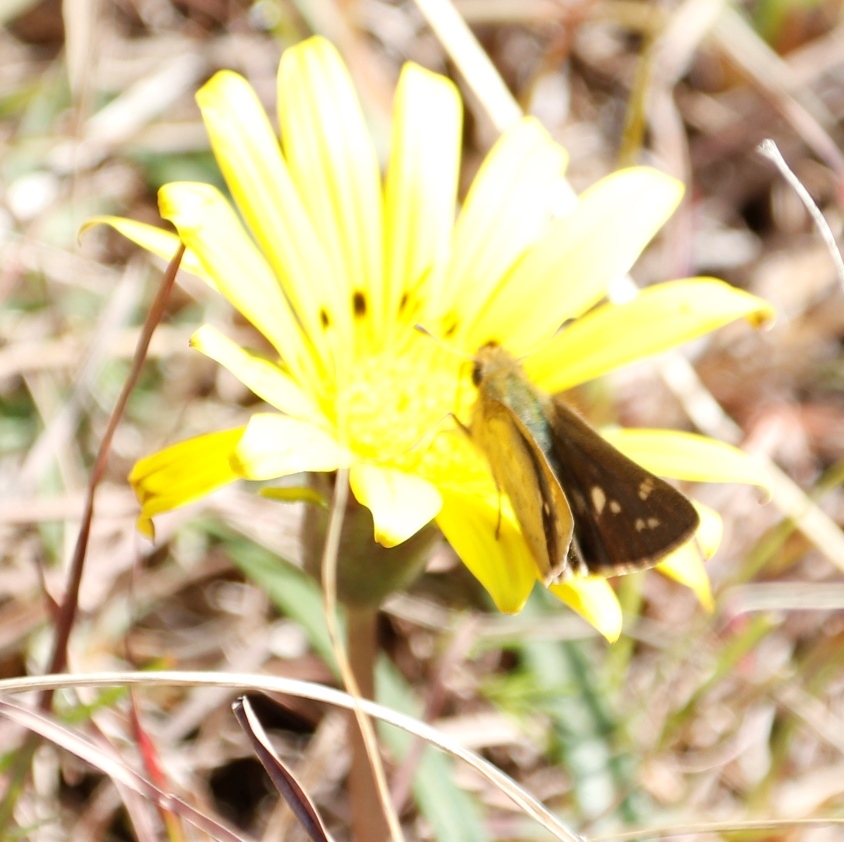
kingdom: Animalia
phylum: Arthropoda
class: Insecta
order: Hymenoptera
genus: Afrogenes
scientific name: Afrogenes
